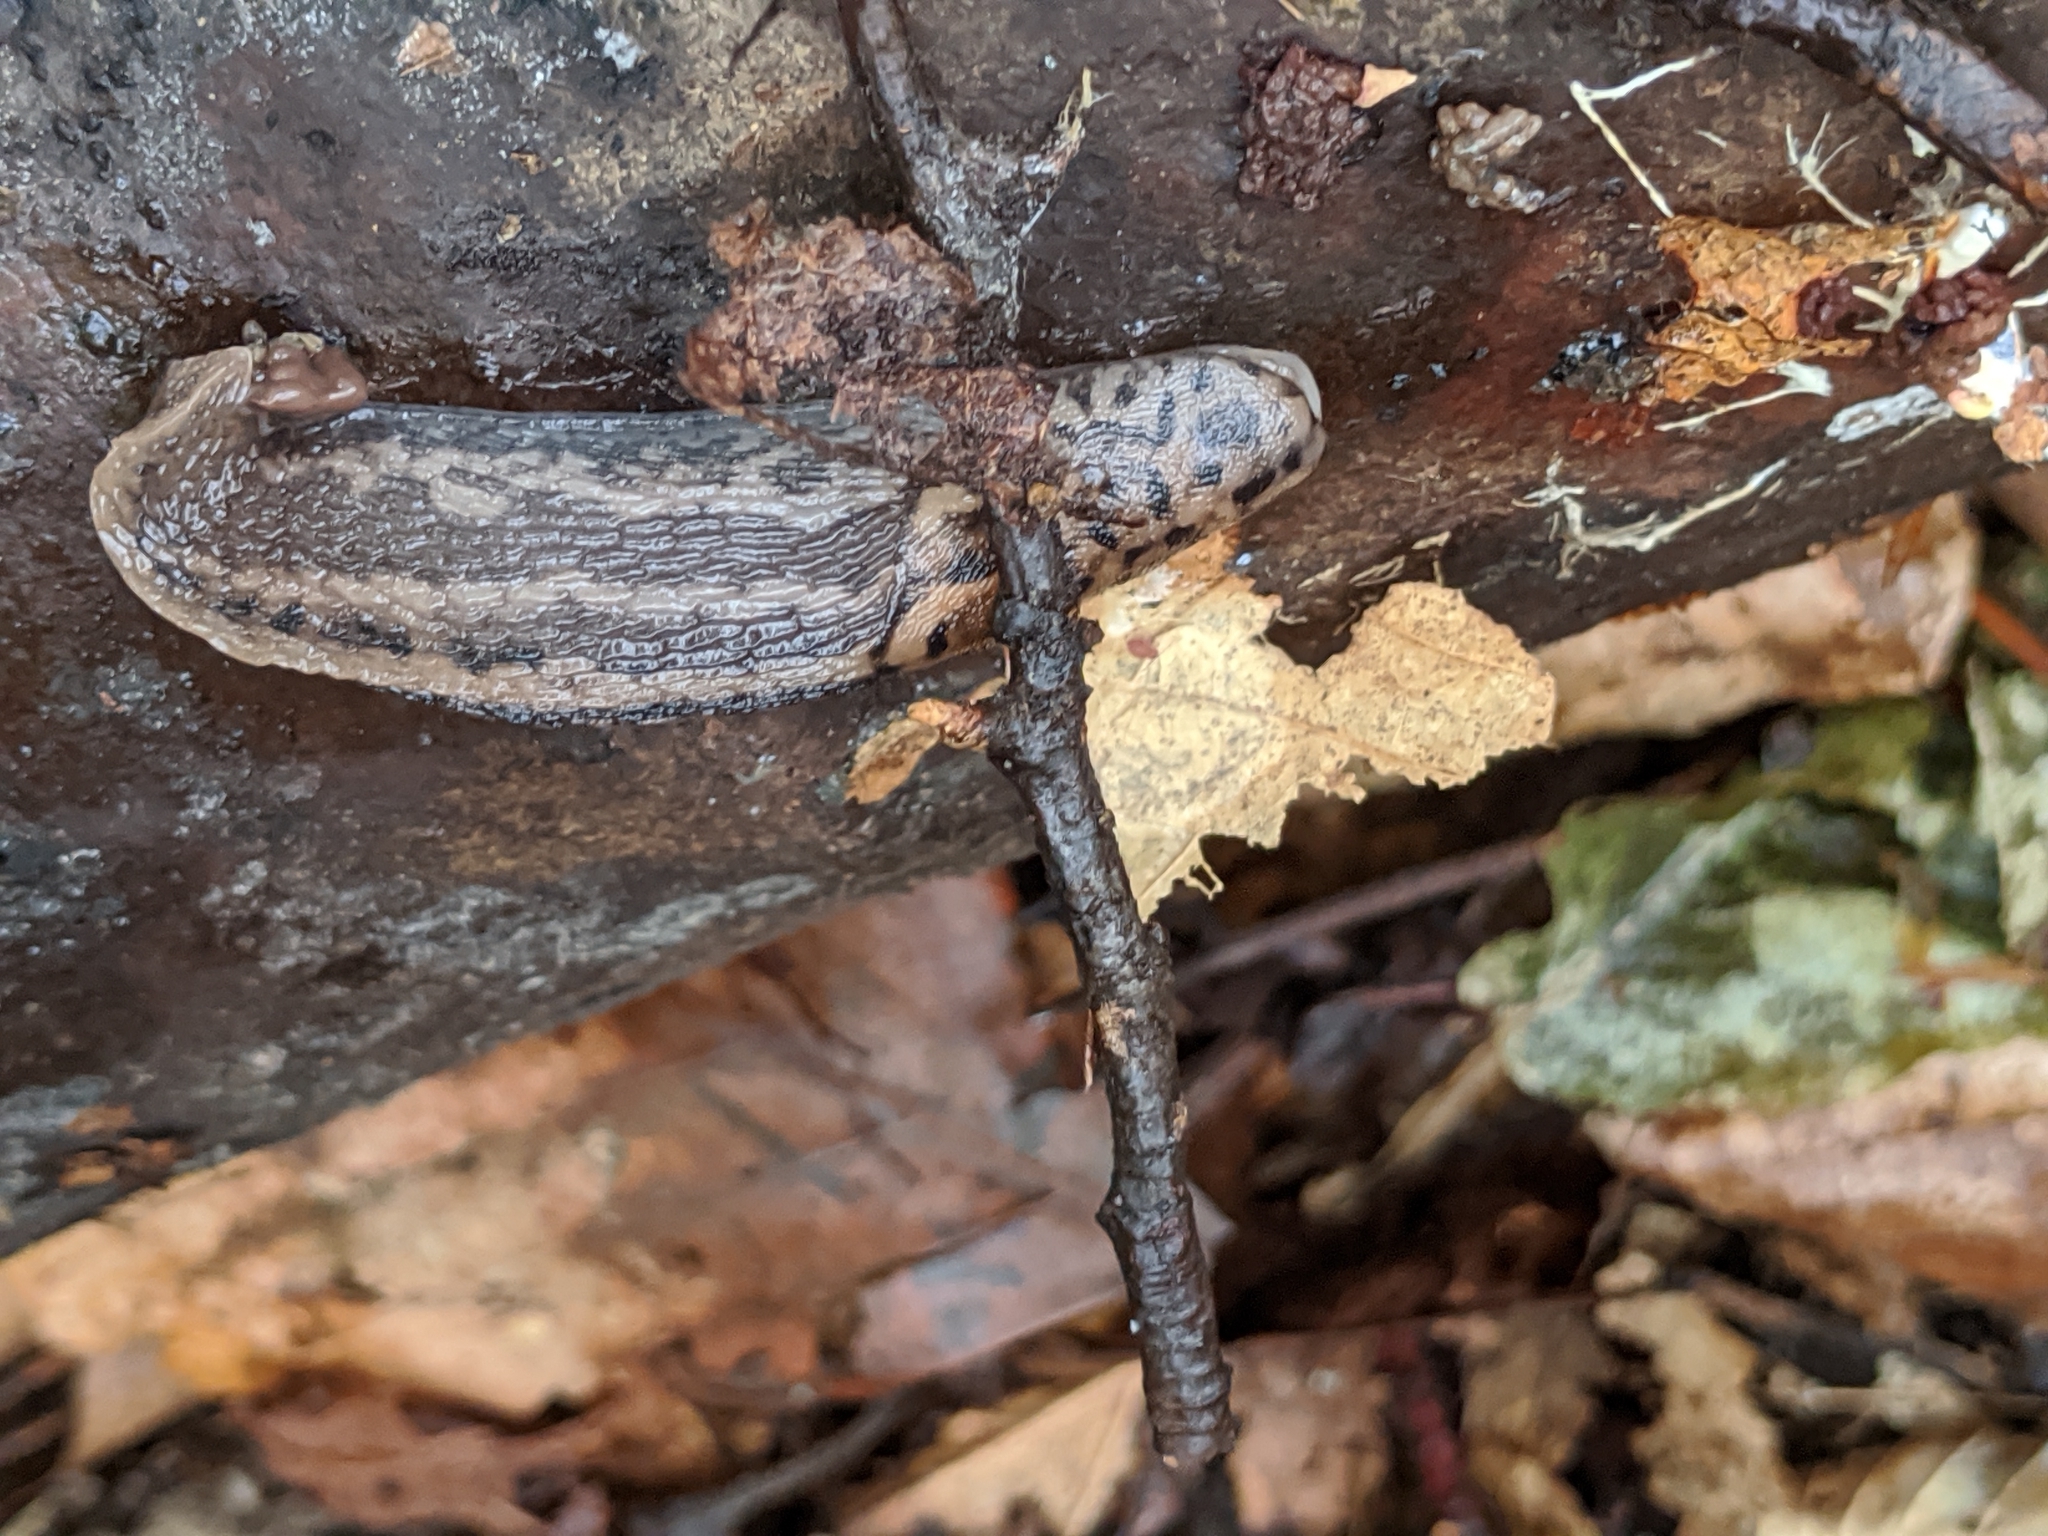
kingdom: Animalia
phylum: Mollusca
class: Gastropoda
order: Stylommatophora
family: Limacidae
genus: Limax
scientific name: Limax maximus
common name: Great grey slug
